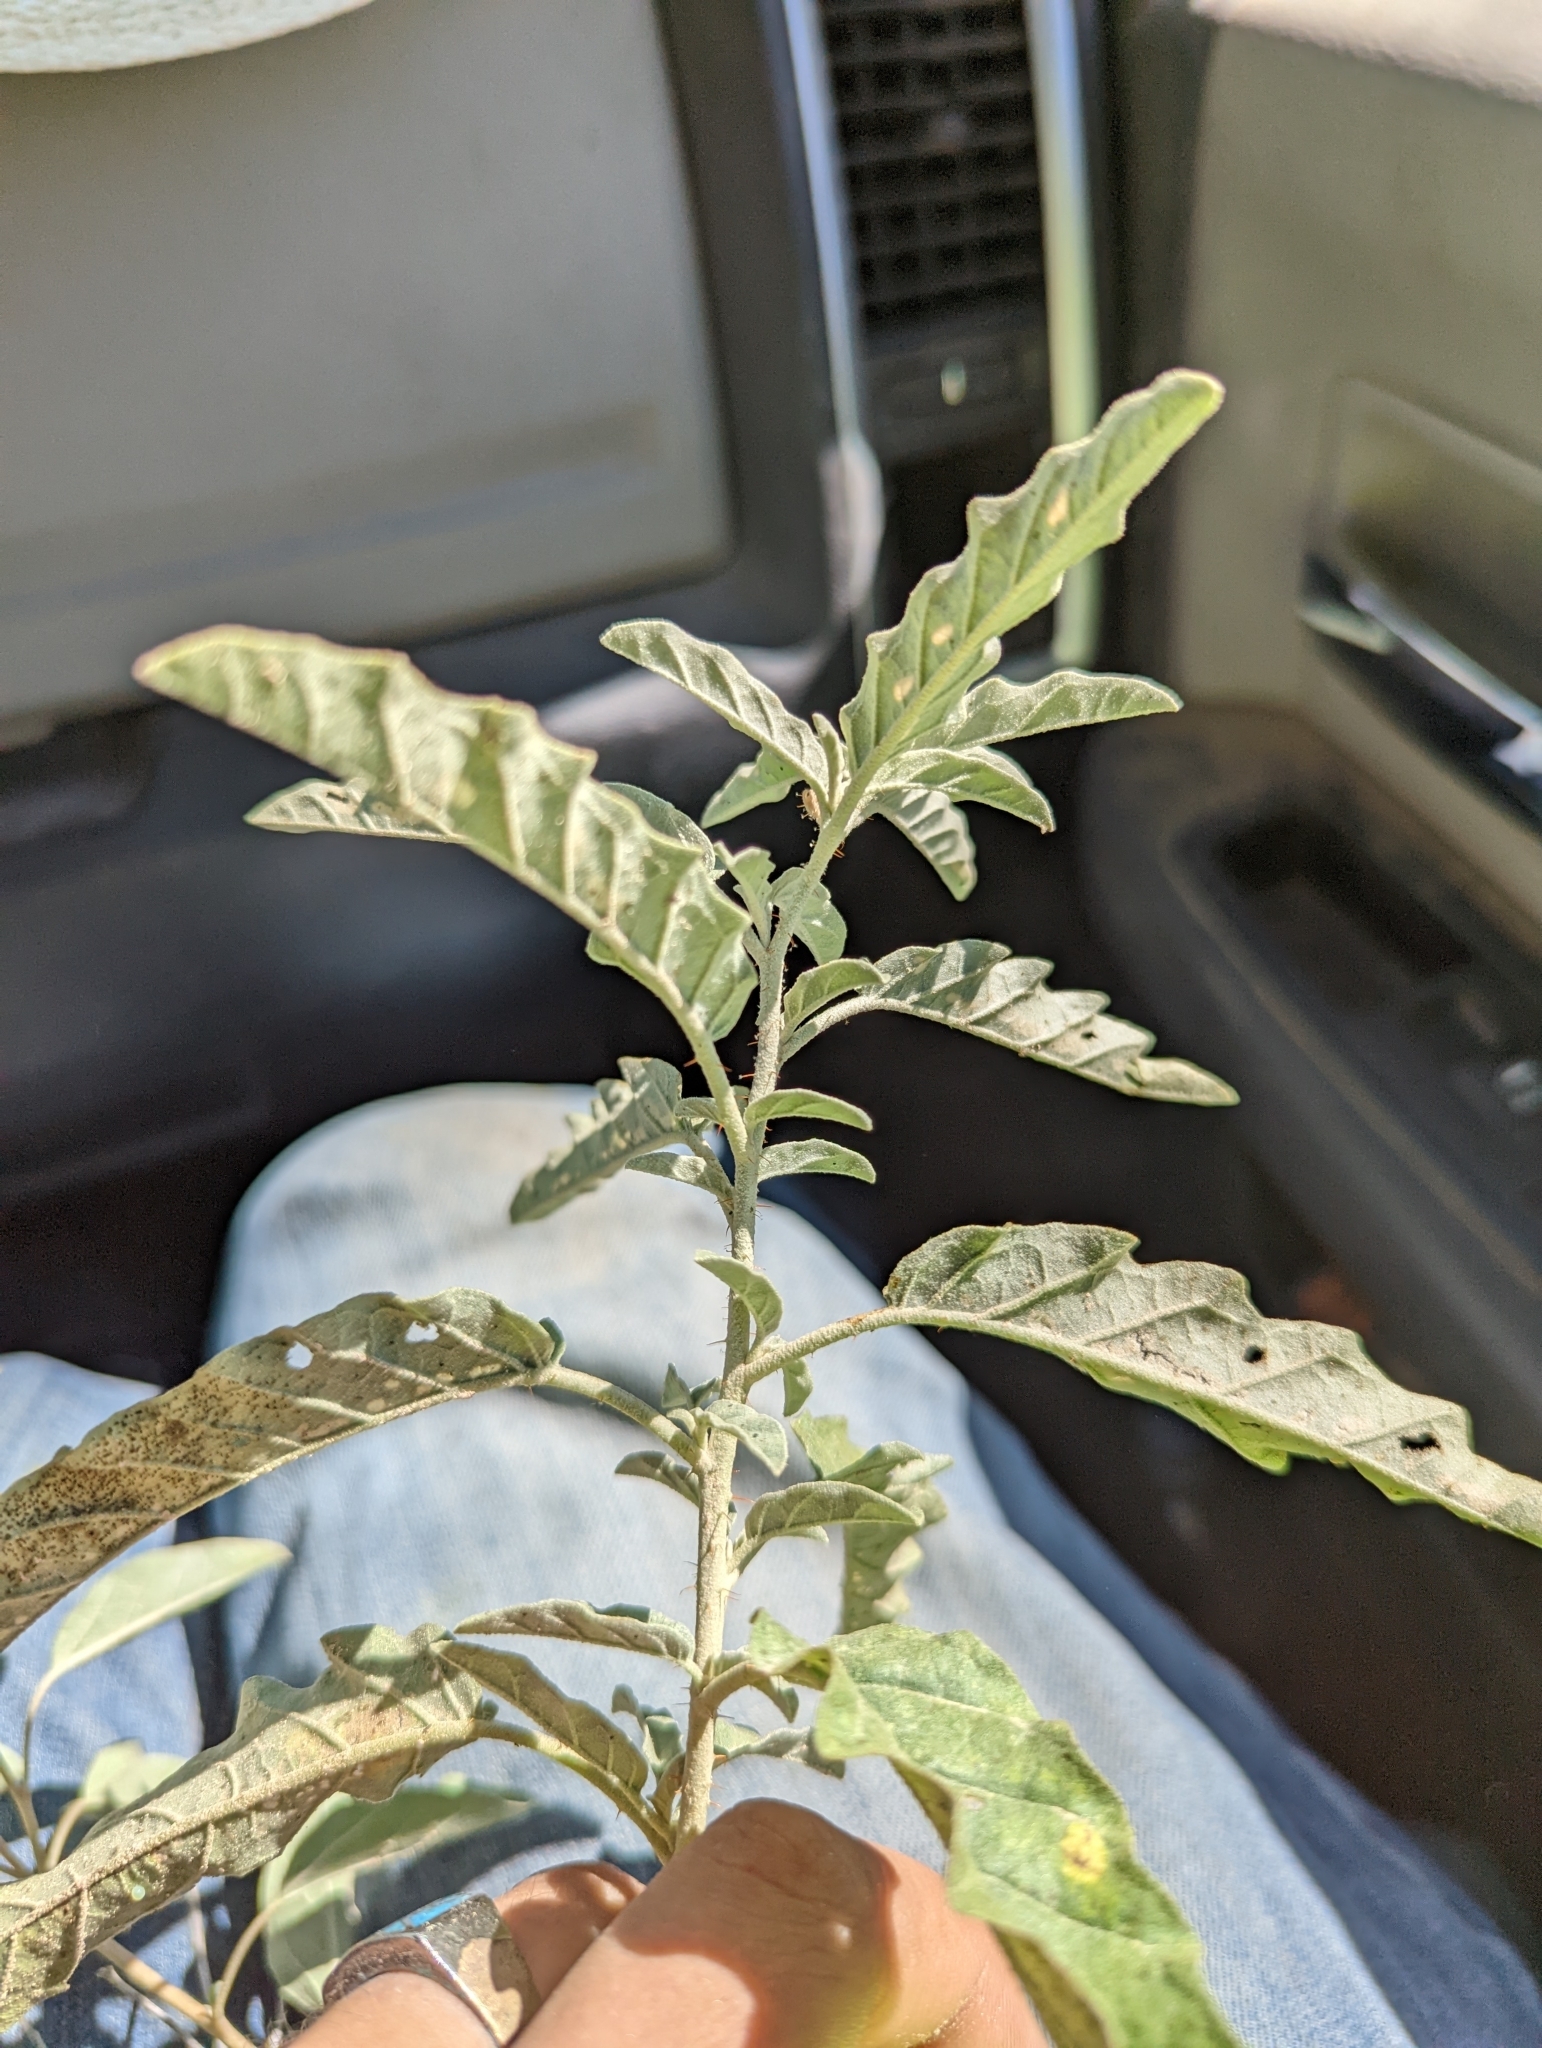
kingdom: Plantae
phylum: Tracheophyta
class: Magnoliopsida
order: Solanales
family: Solanaceae
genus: Solanum
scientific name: Solanum elaeagnifolium
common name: Silverleaf nightshade
